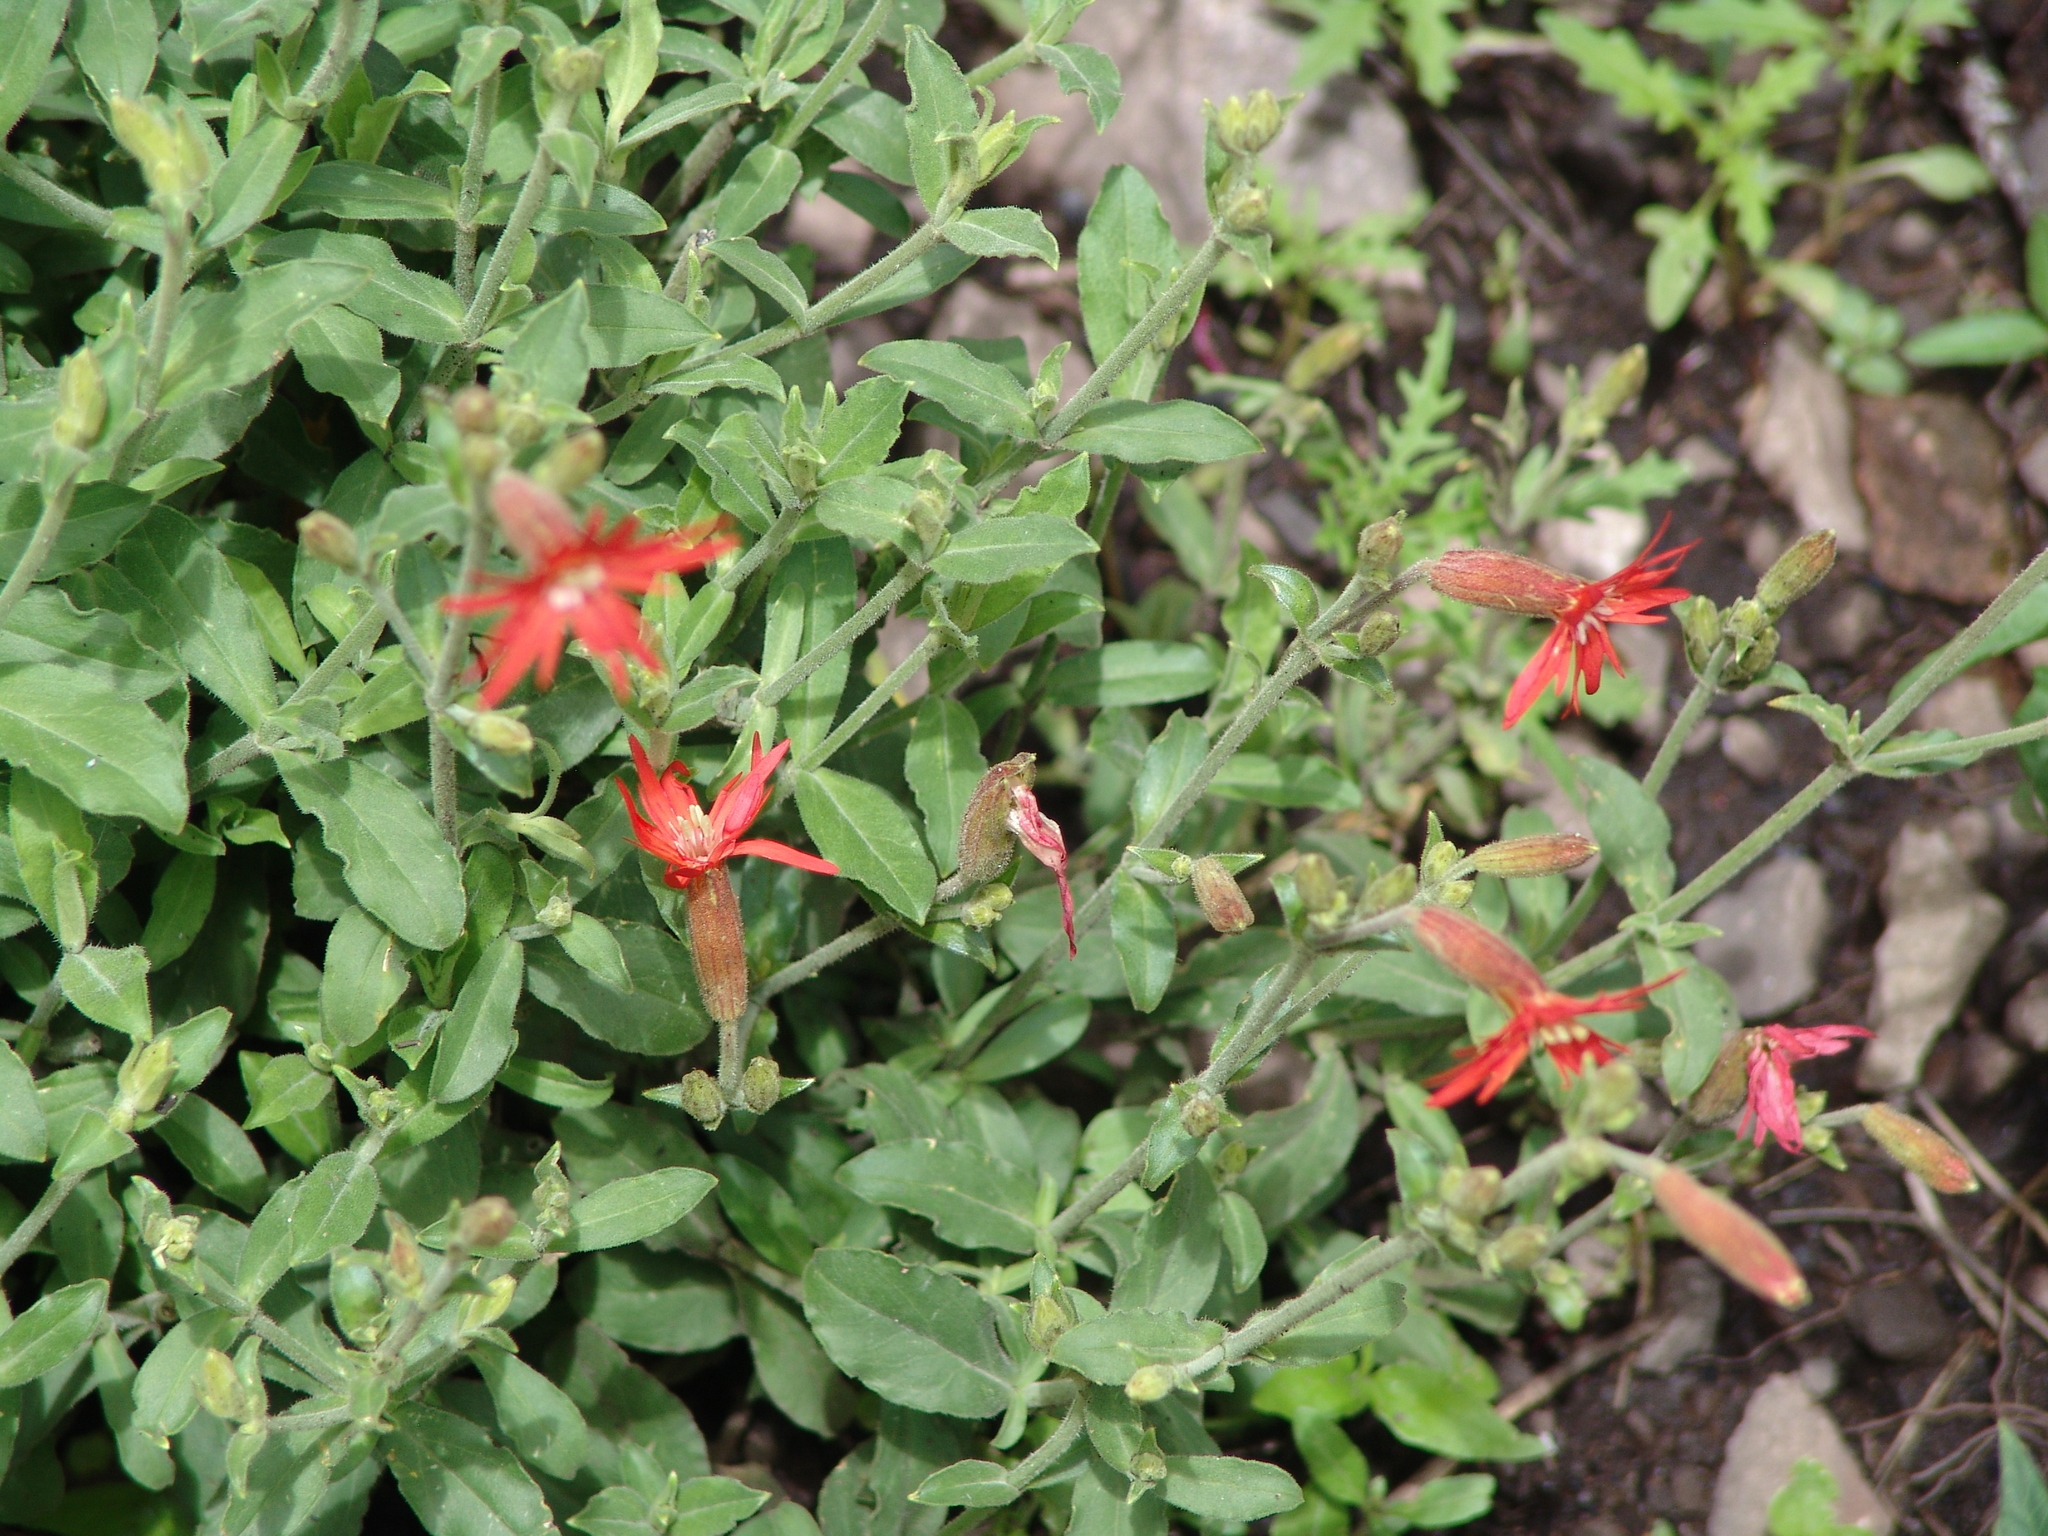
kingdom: Plantae
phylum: Tracheophyta
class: Magnoliopsida
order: Caryophyllales
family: Caryophyllaceae
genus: Silene
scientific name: Silene laciniata
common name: Indian-pink
